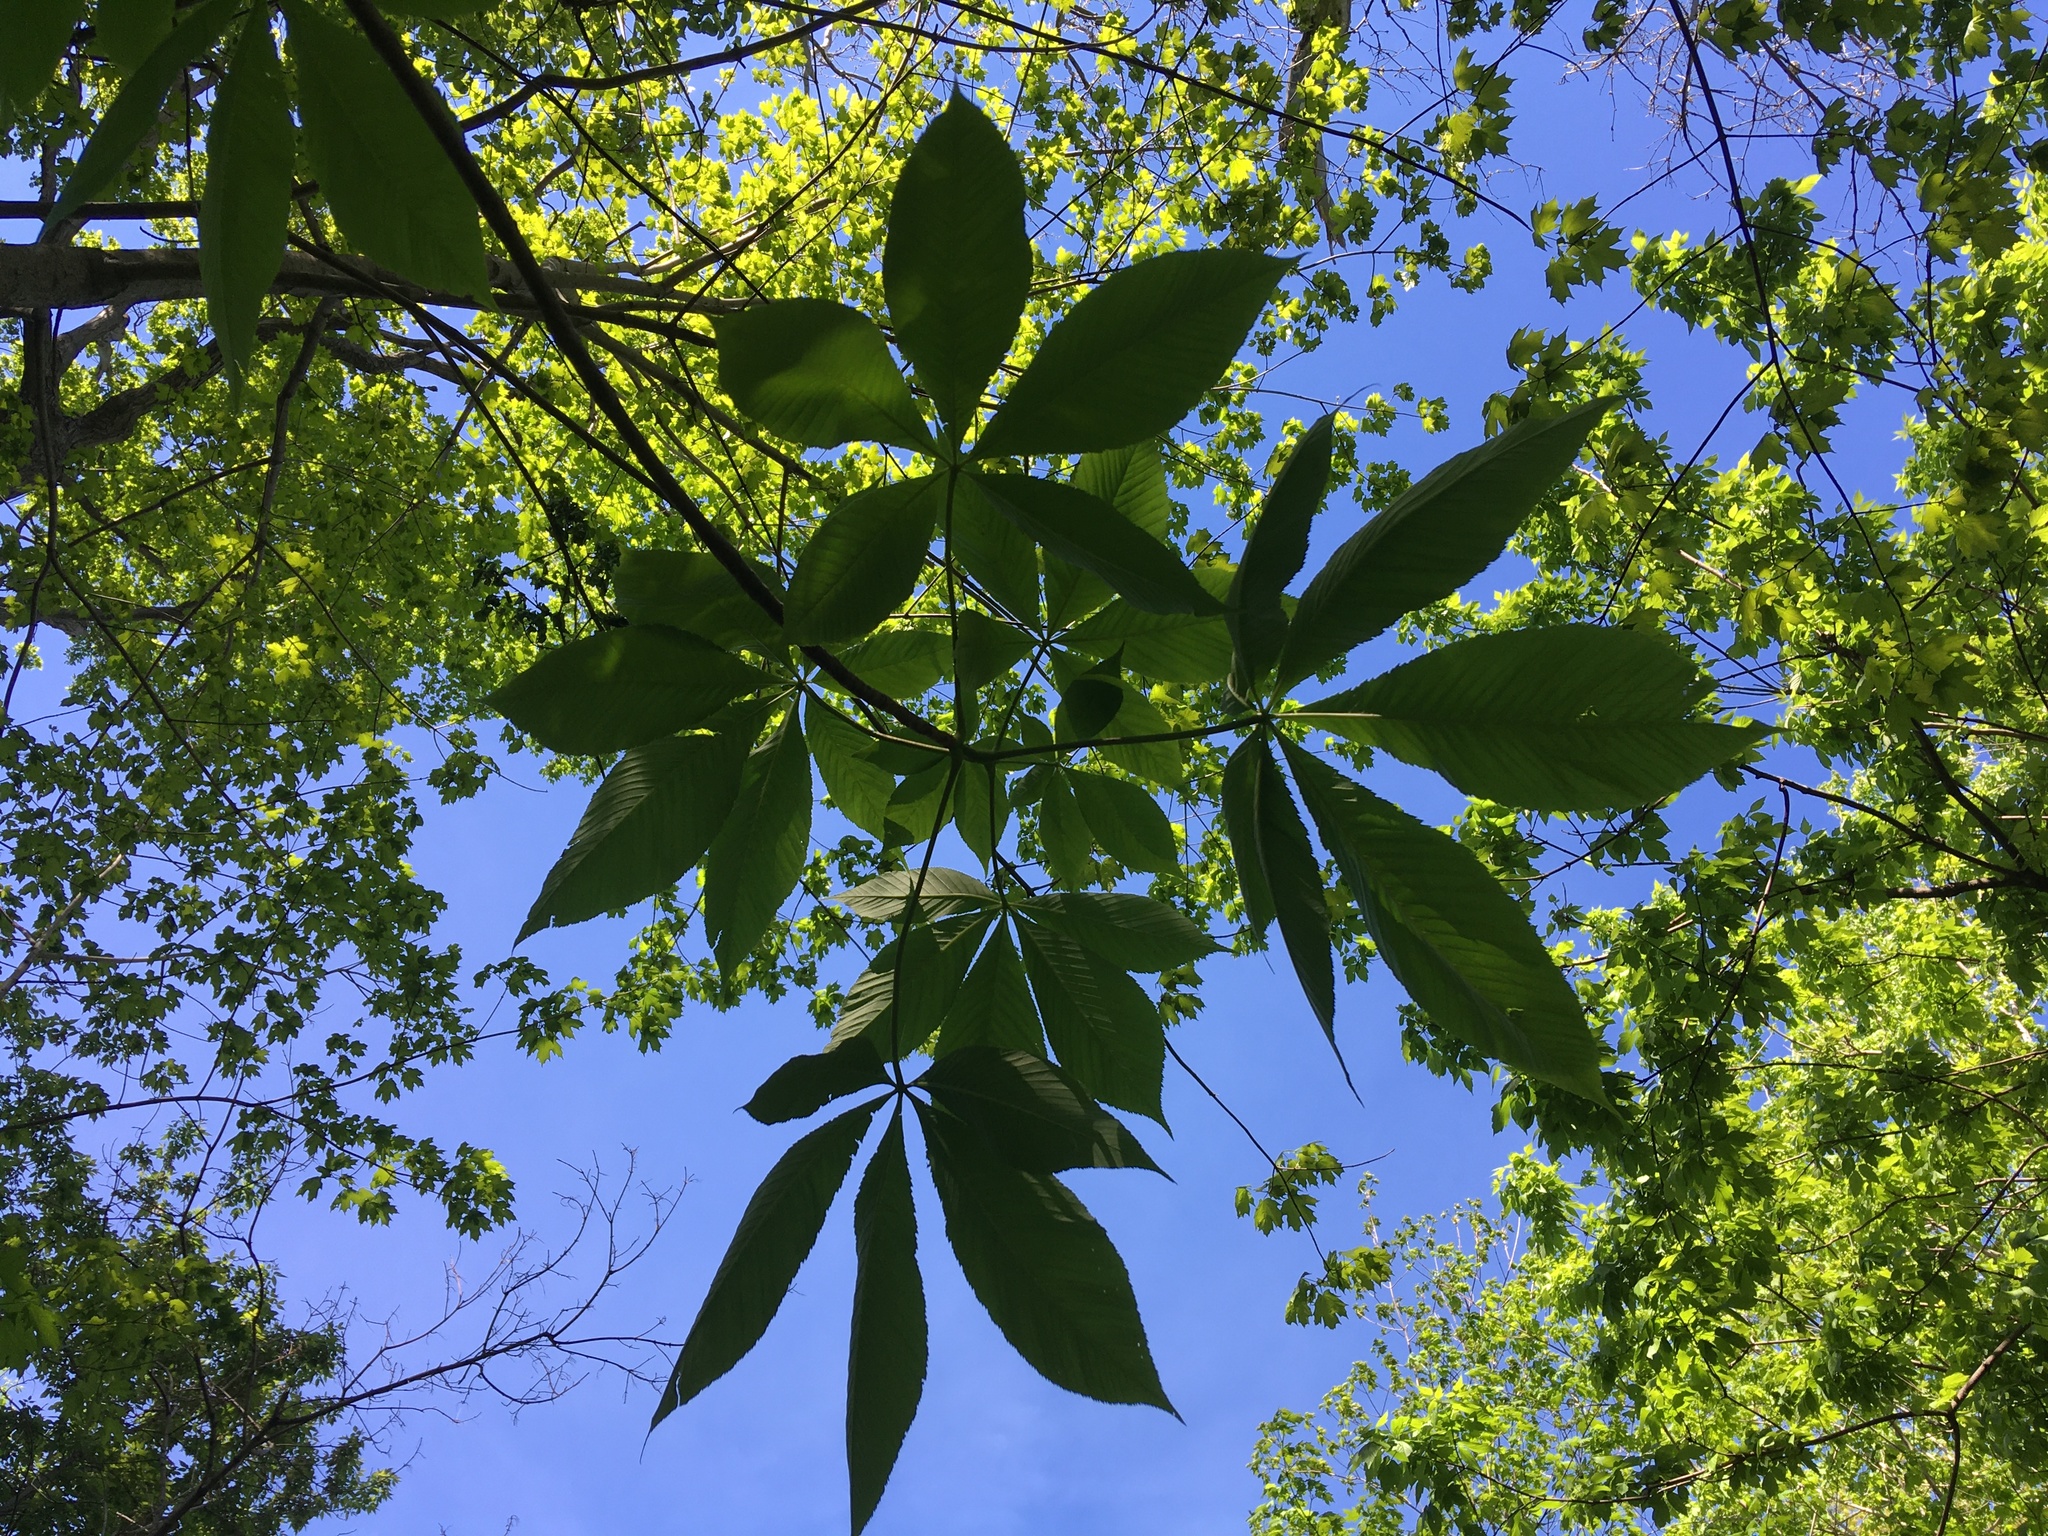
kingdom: Plantae
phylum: Tracheophyta
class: Magnoliopsida
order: Sapindales
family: Sapindaceae
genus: Aesculus
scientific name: Aesculus flava
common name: Yellow buckeye
